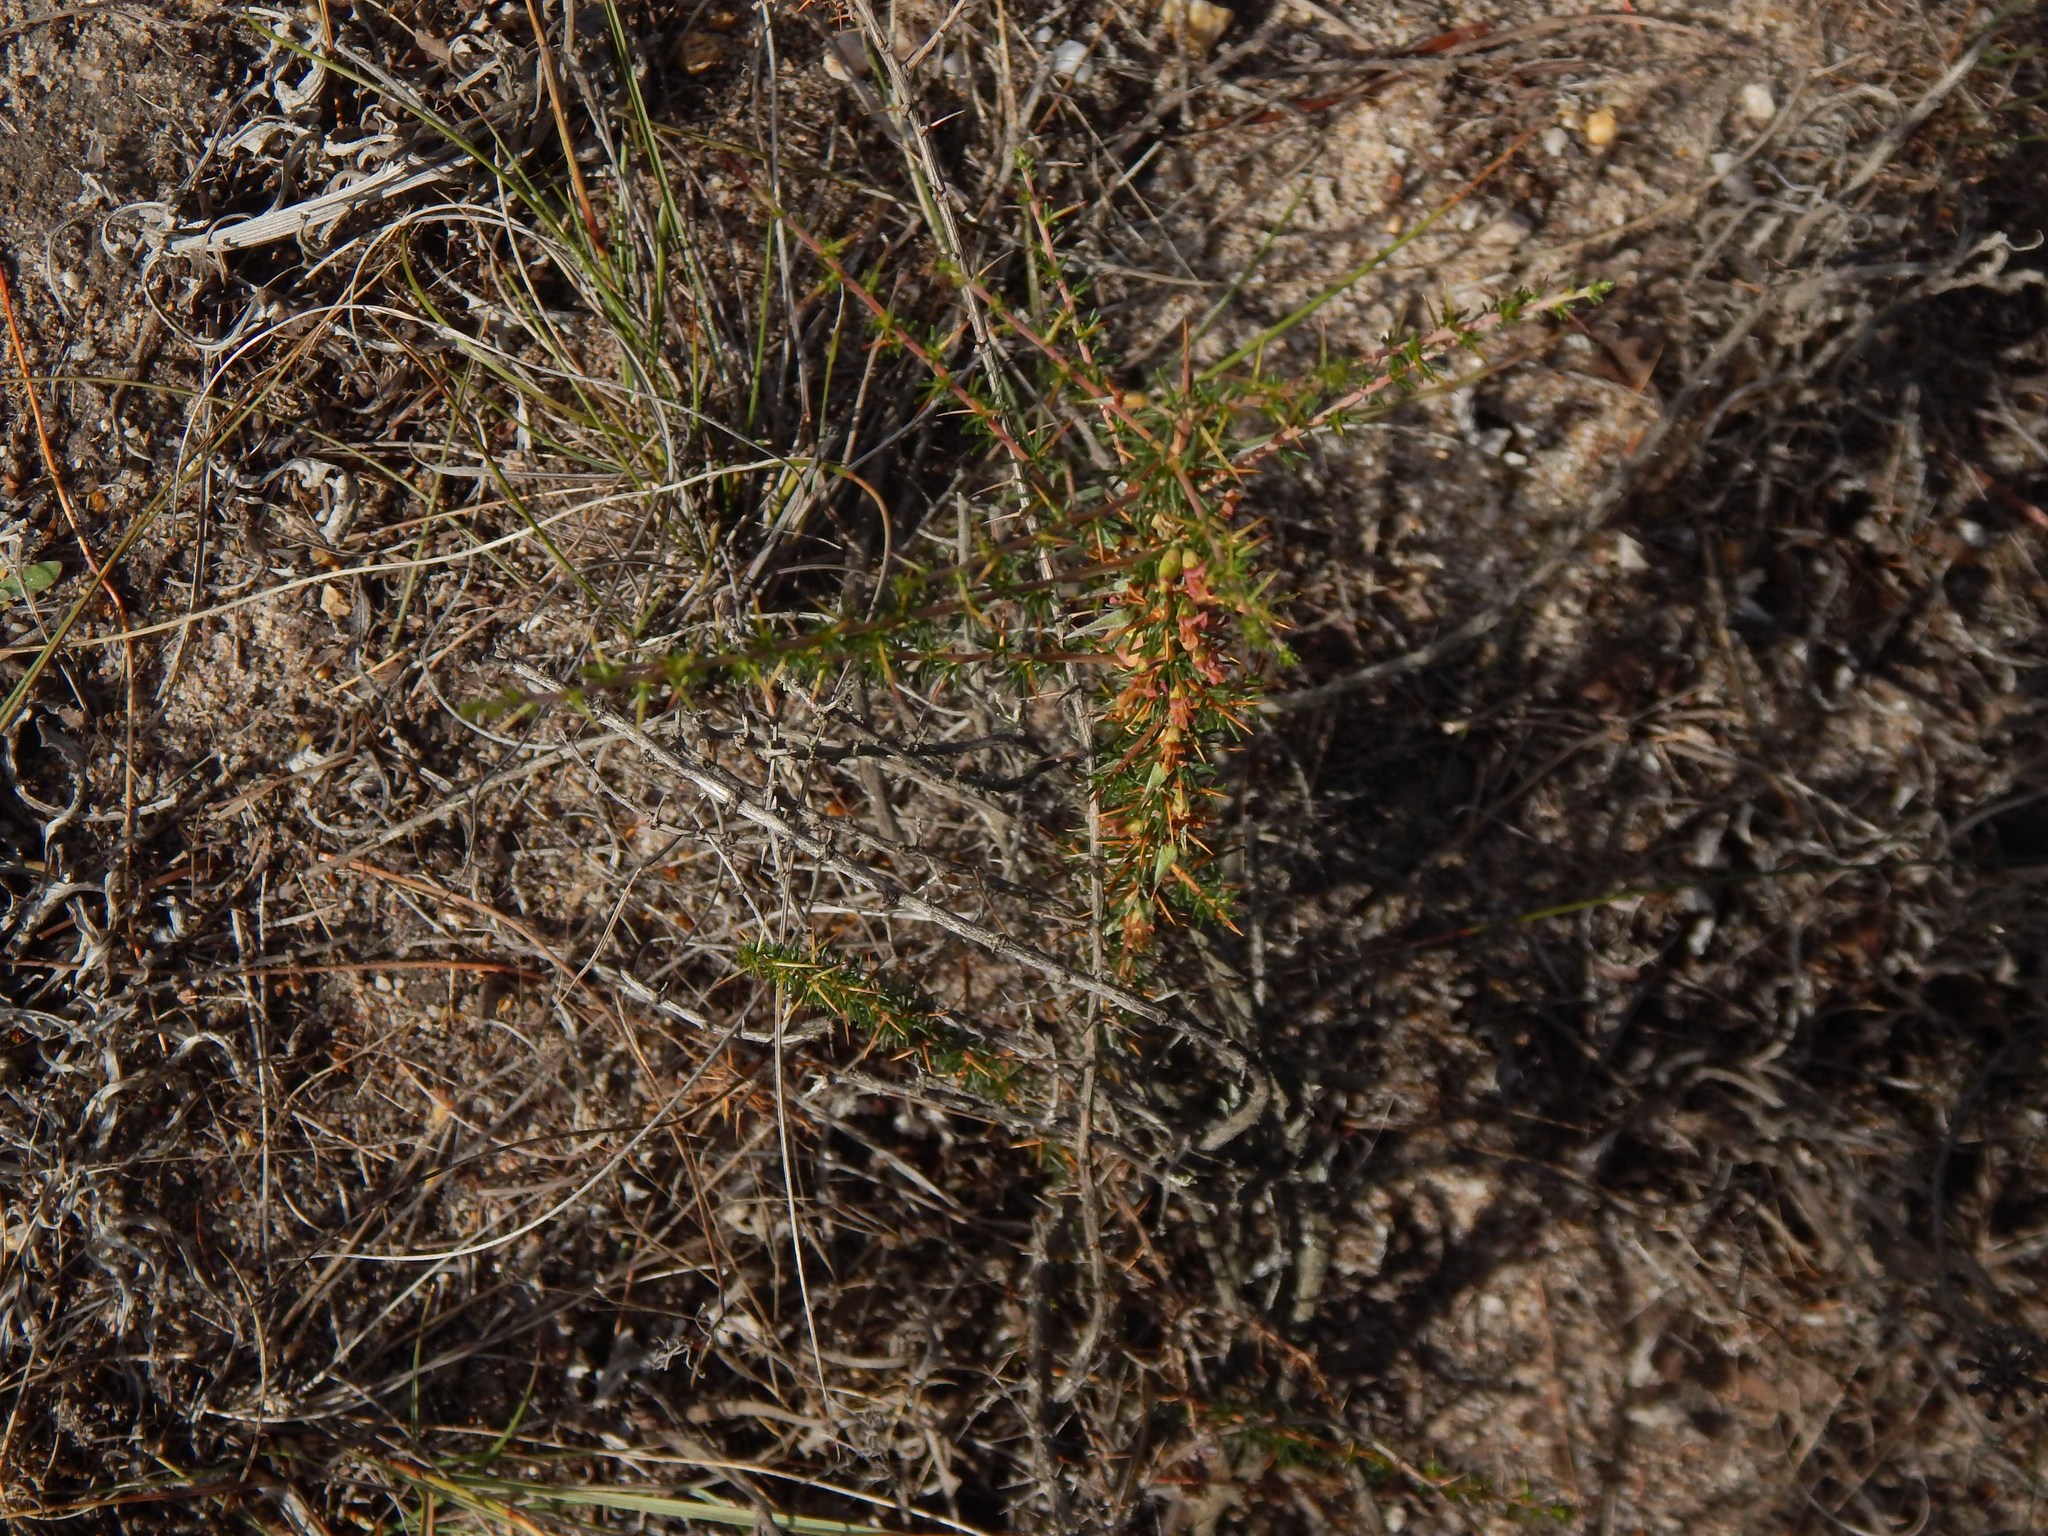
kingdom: Plantae
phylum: Tracheophyta
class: Magnoliopsida
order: Fabales
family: Fabaceae
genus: Aspalathus
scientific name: Aspalathus spinosa
